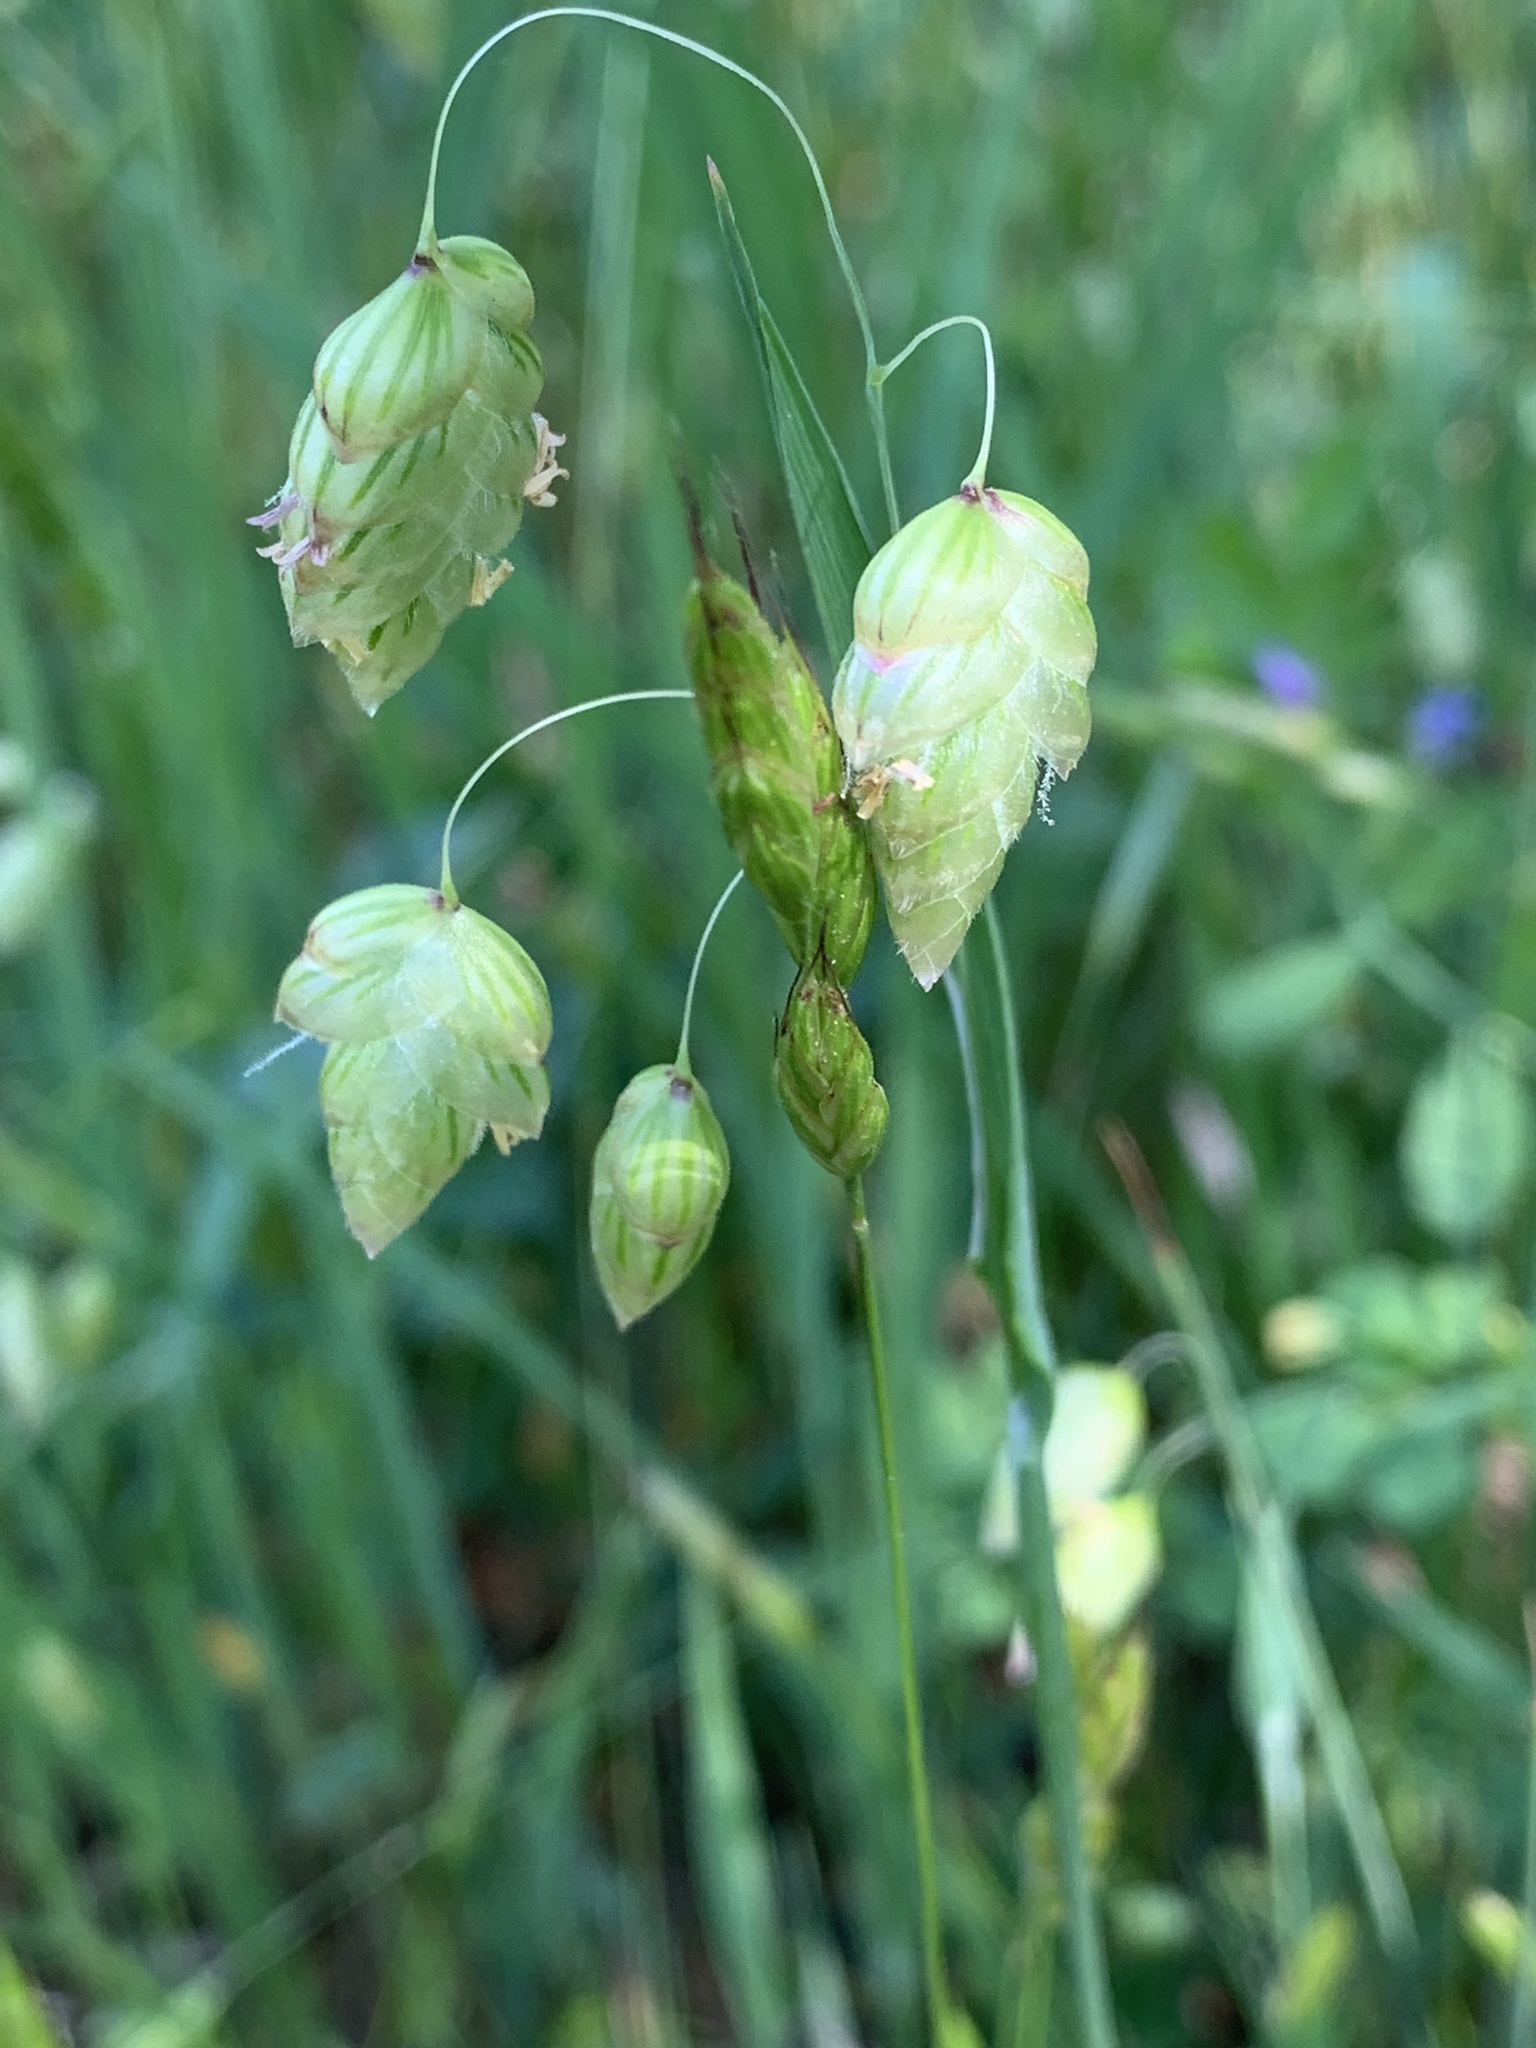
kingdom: Plantae
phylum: Tracheophyta
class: Liliopsida
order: Poales
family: Poaceae
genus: Briza
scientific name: Briza maxima
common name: Big quakinggrass
